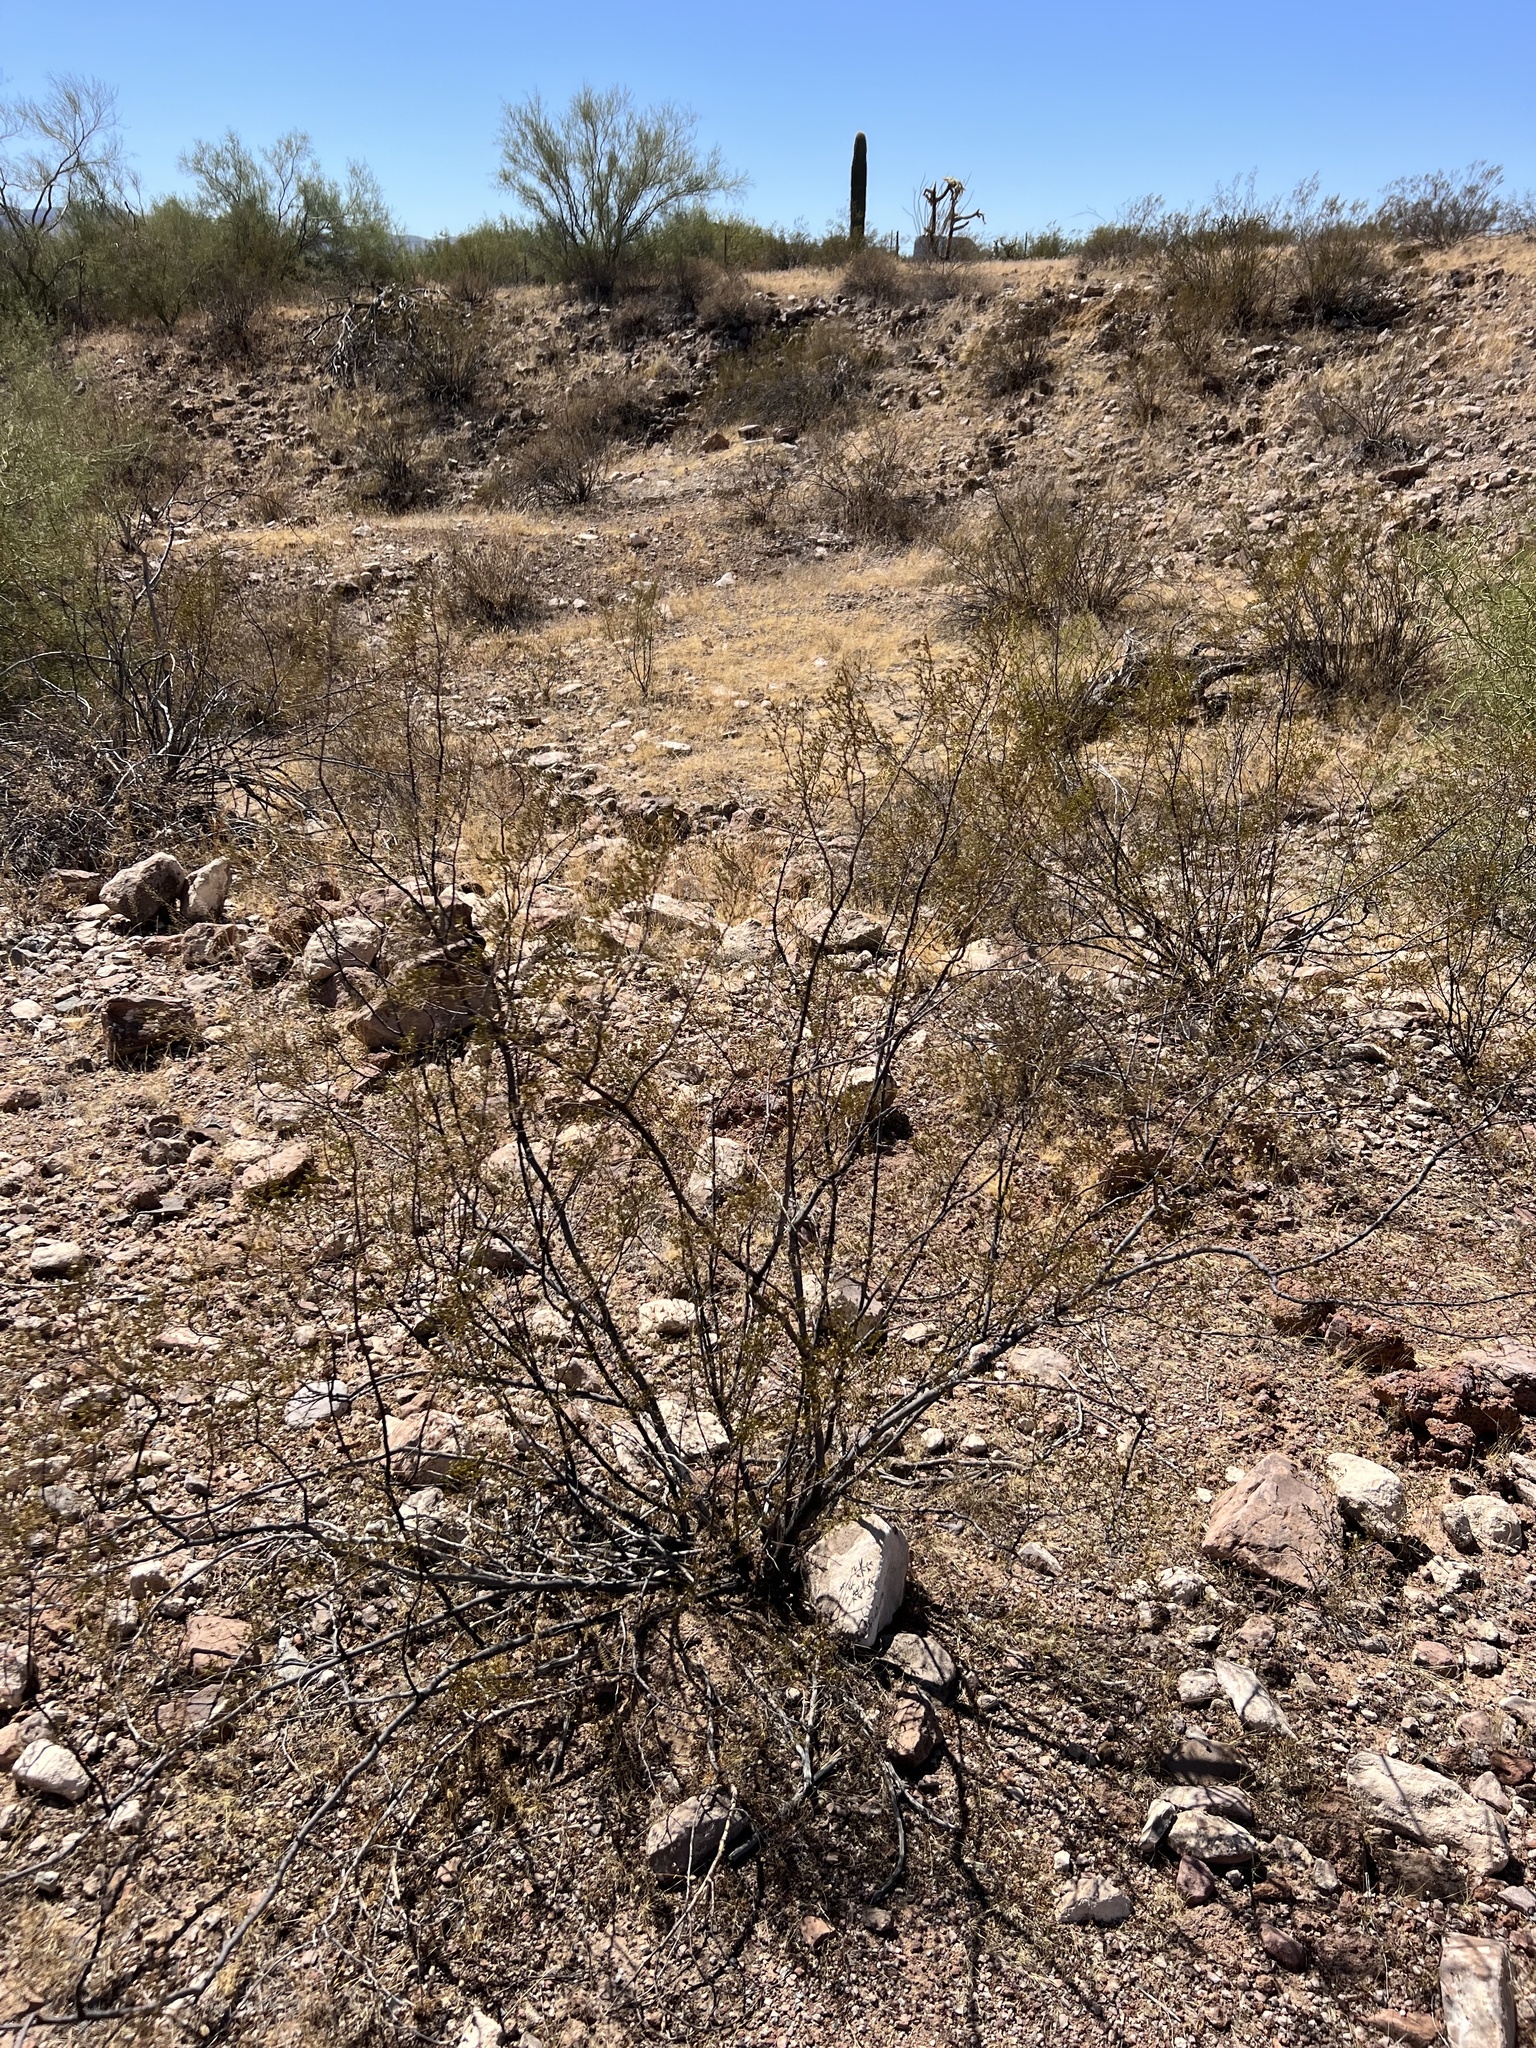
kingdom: Plantae
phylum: Tracheophyta
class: Magnoliopsida
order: Zygophyllales
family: Zygophyllaceae
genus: Larrea
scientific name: Larrea tridentata
